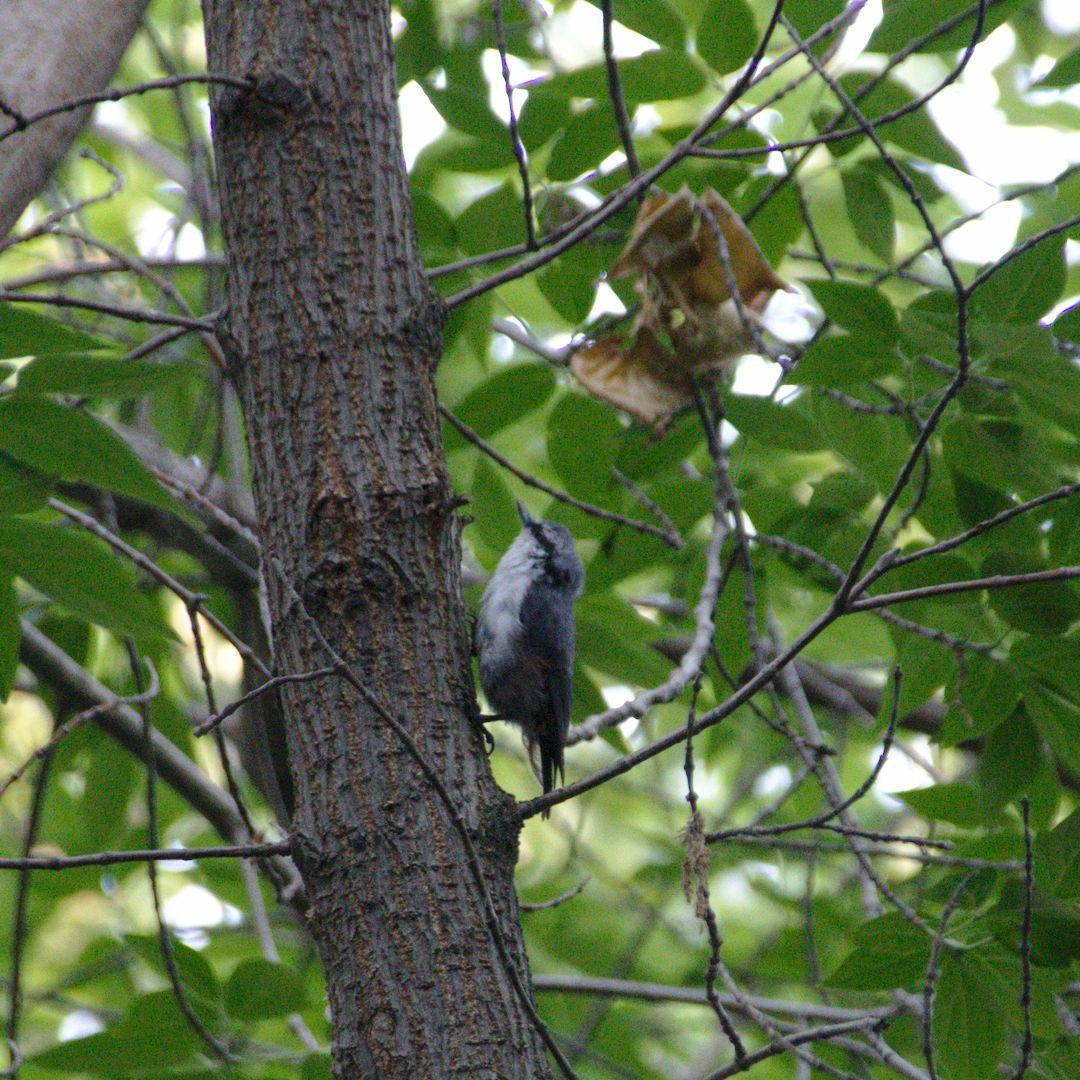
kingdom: Animalia
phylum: Chordata
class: Aves
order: Passeriformes
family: Sittidae
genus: Sitta
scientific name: Sitta europaea
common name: Eurasian nuthatch
